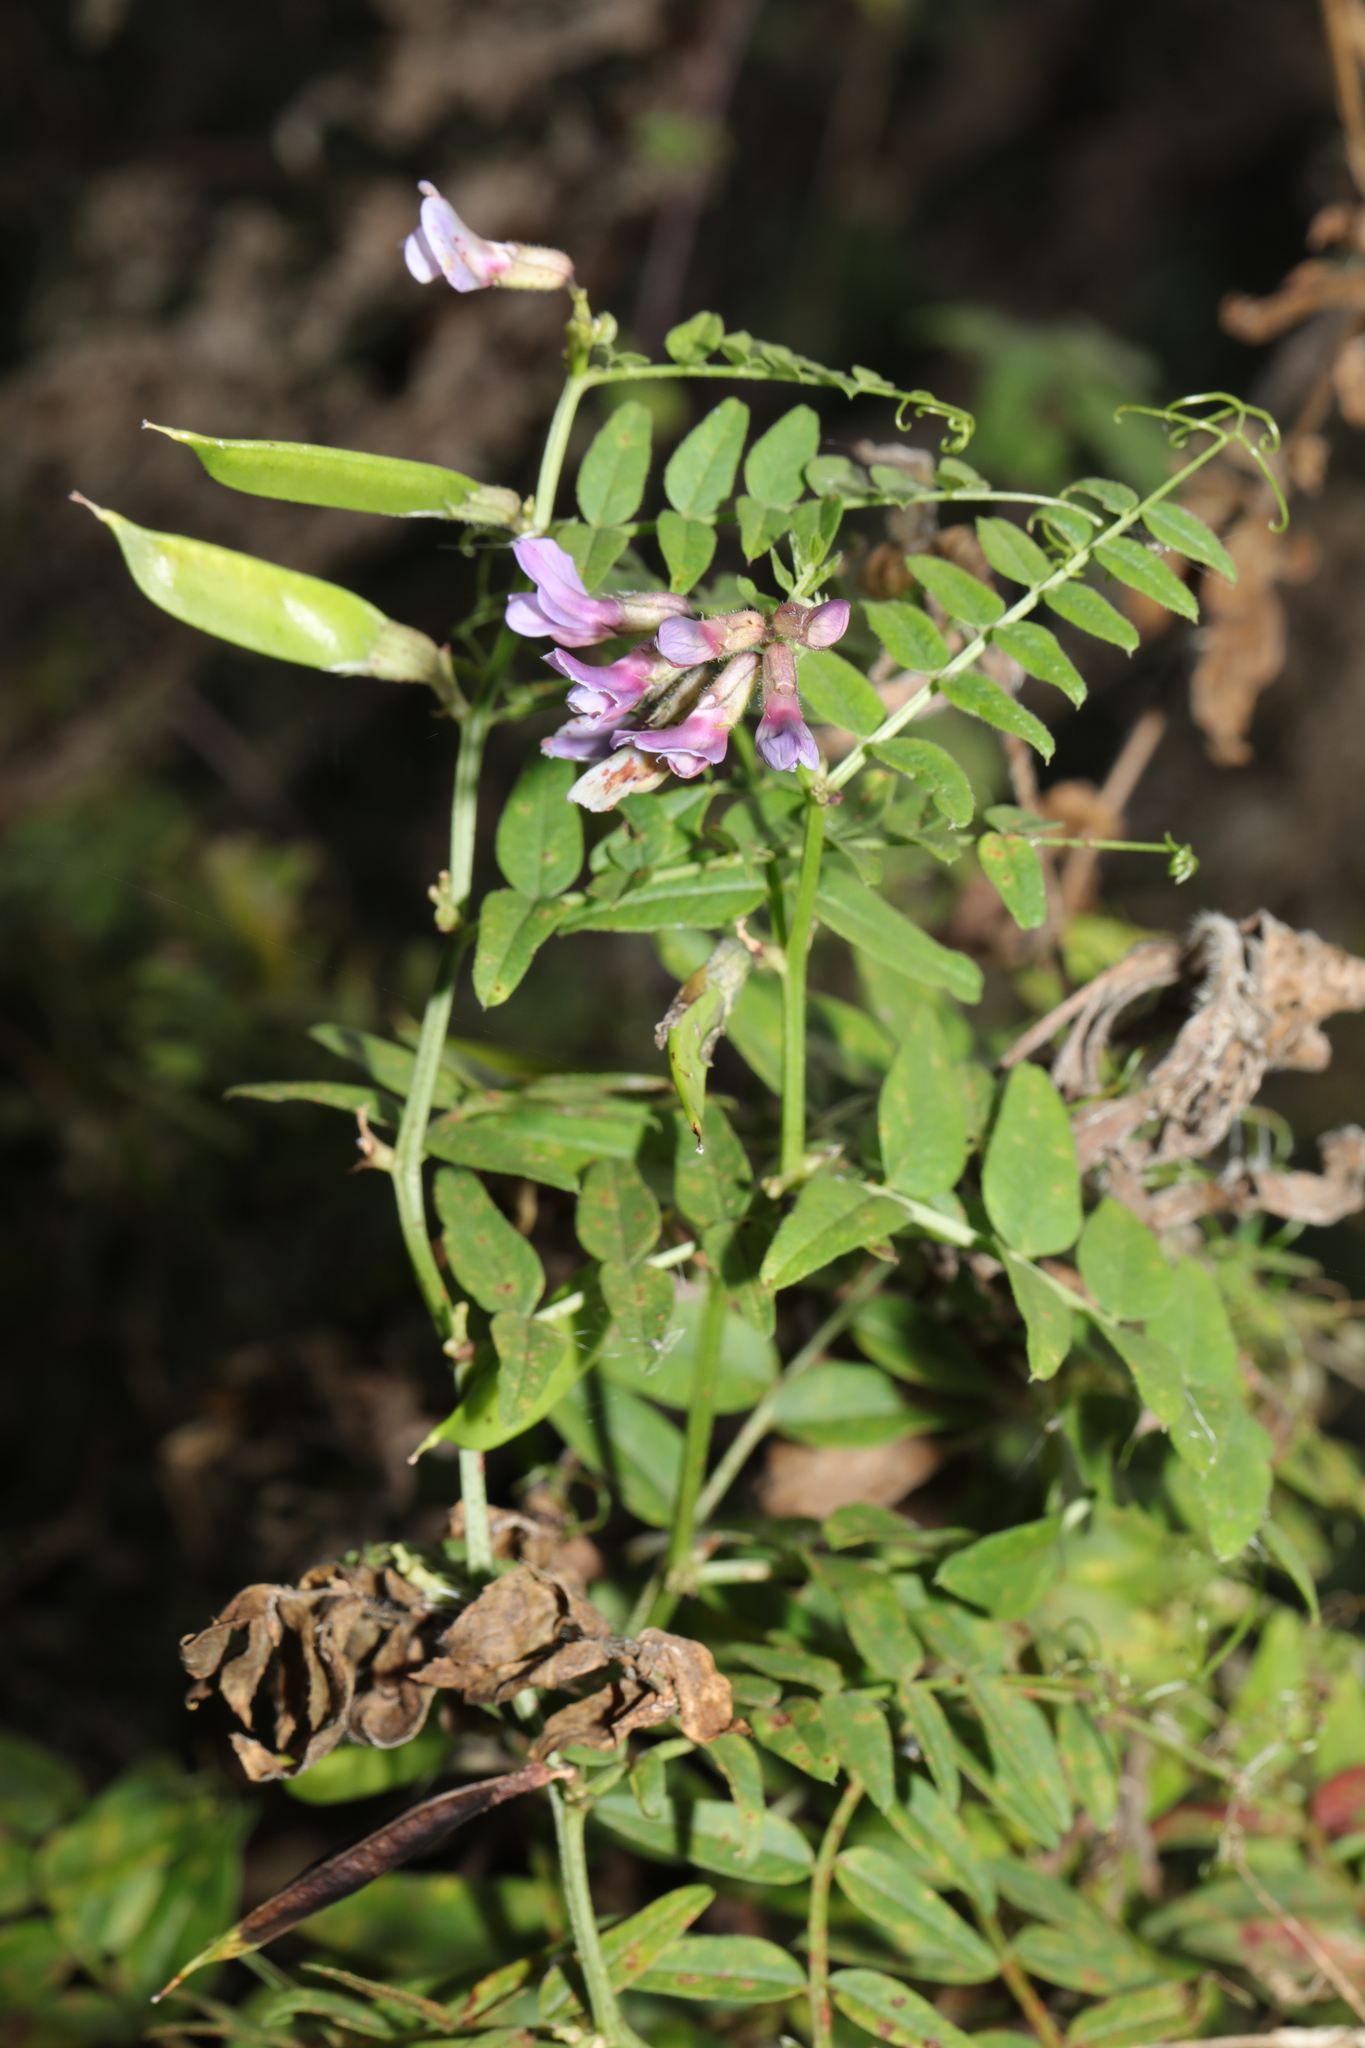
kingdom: Plantae
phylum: Tracheophyta
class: Magnoliopsida
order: Fabales
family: Fabaceae
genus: Vicia
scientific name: Vicia sepium
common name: Bush vetch
